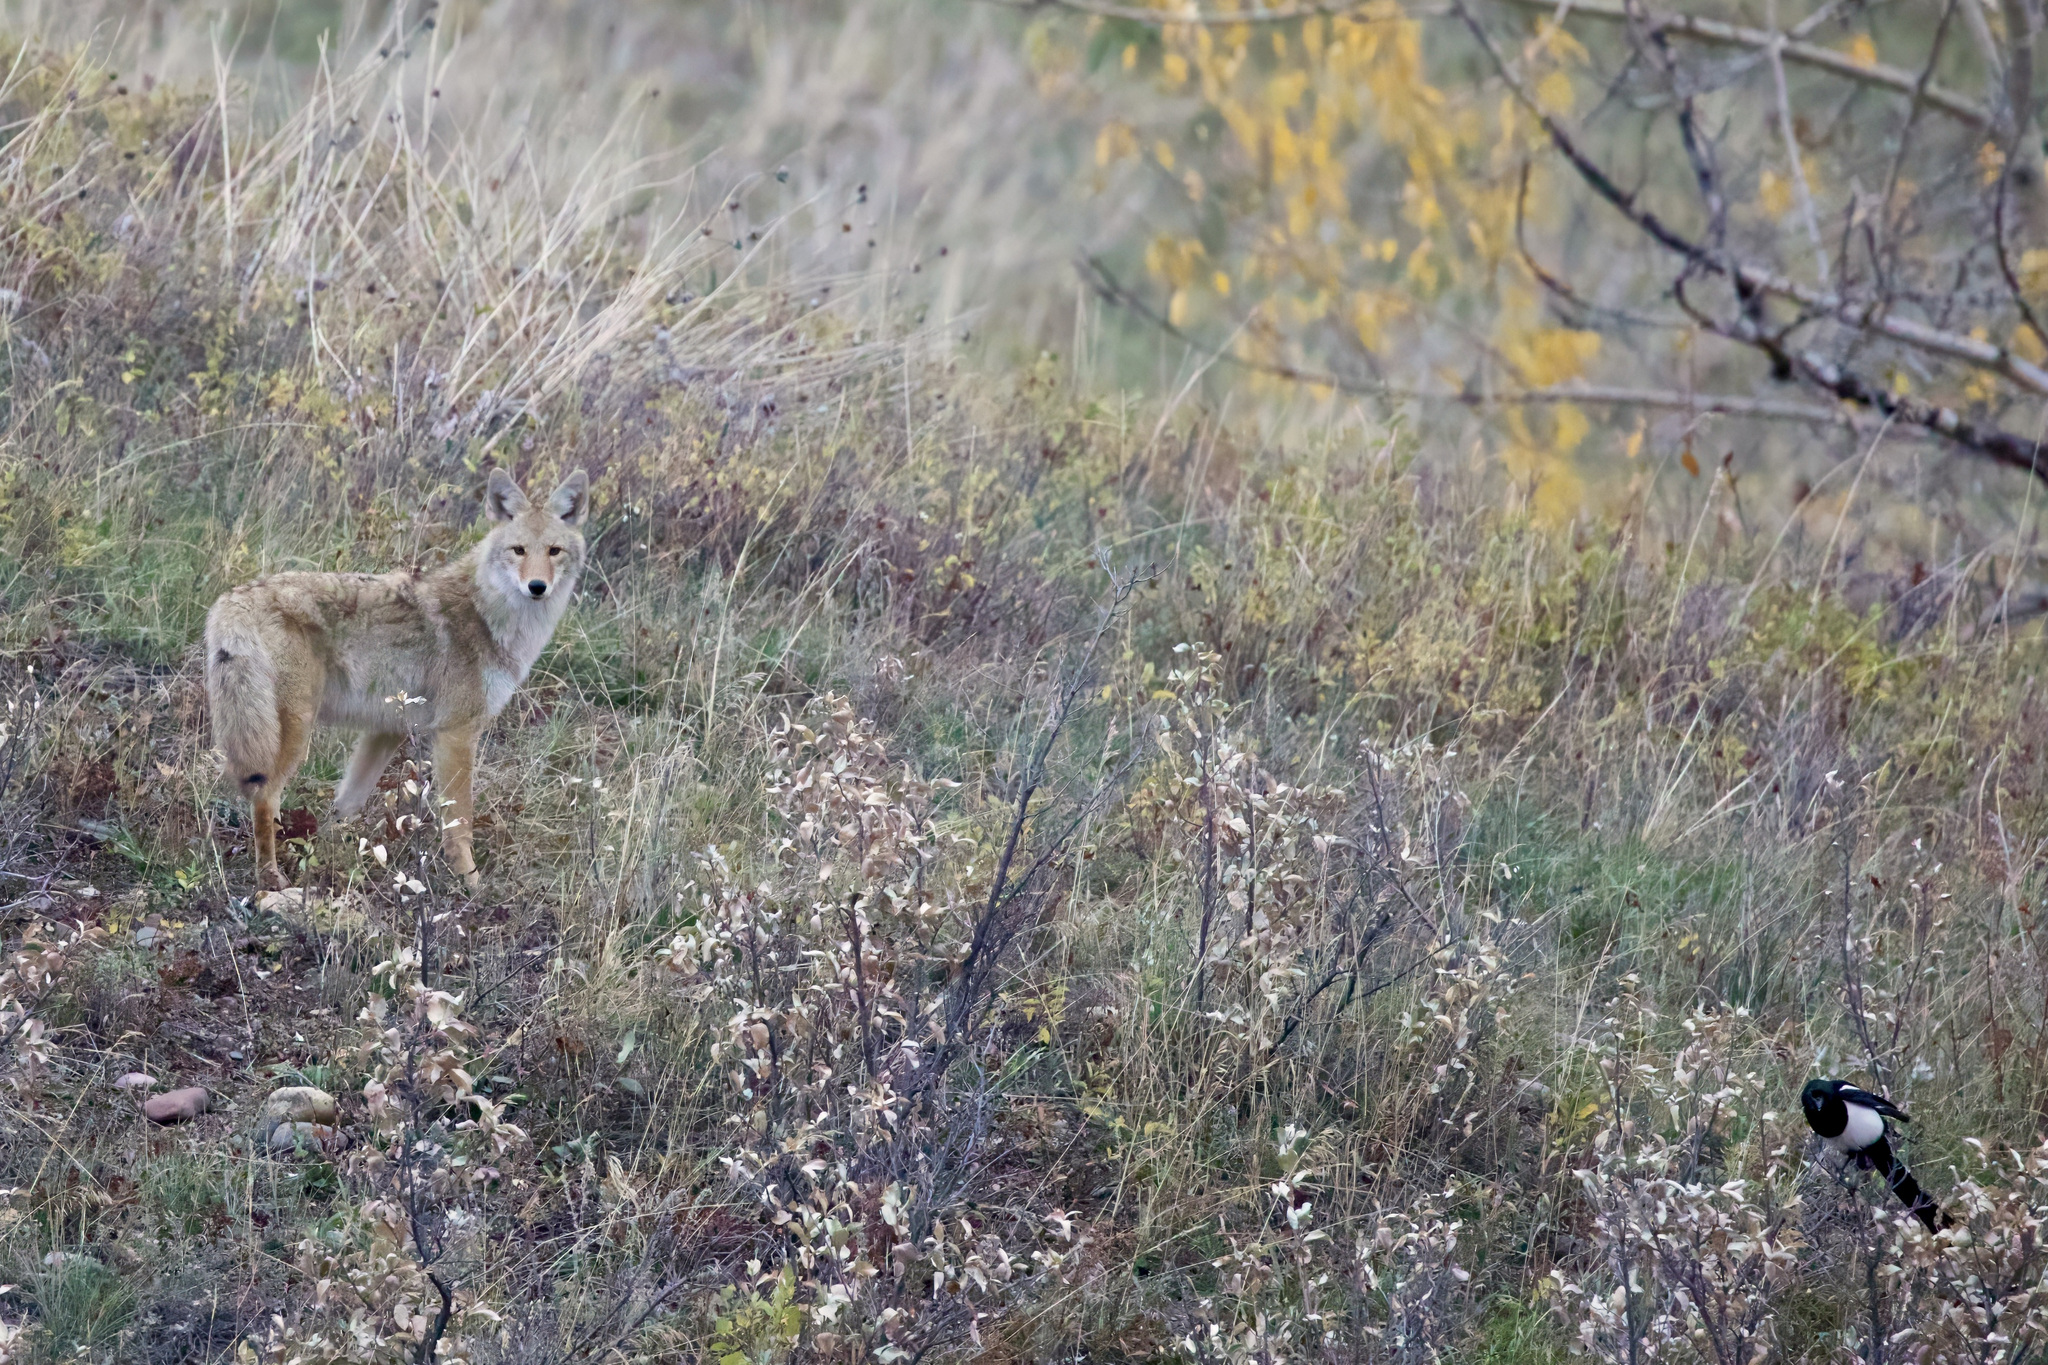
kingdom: Animalia
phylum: Chordata
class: Mammalia
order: Carnivora
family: Canidae
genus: Canis
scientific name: Canis latrans
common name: Coyote
